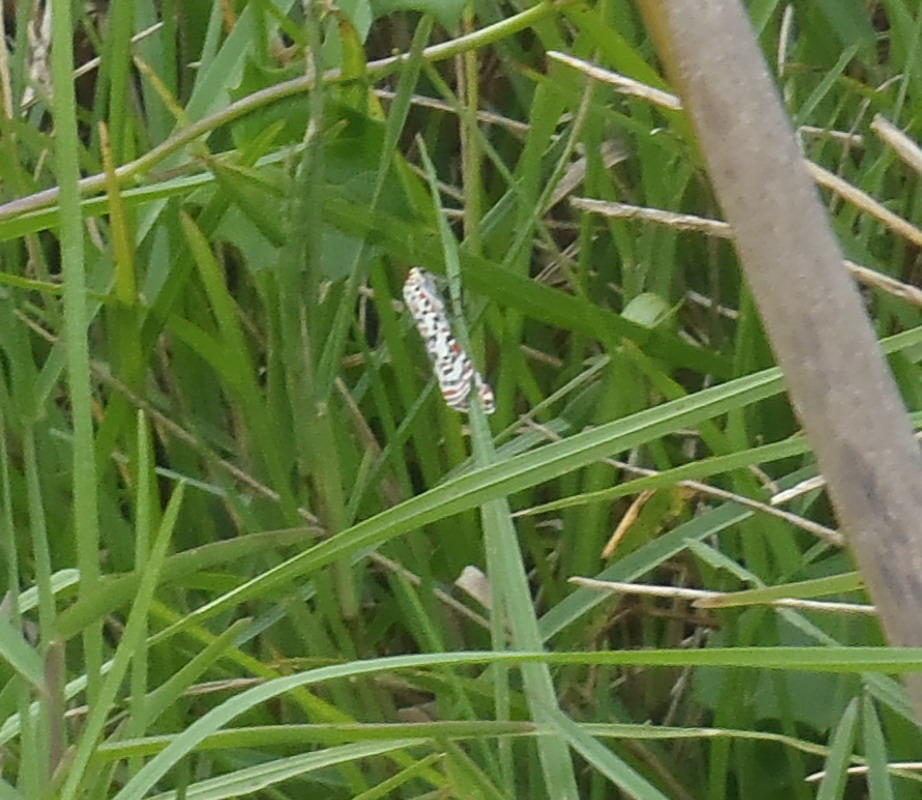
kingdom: Animalia
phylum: Arthropoda
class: Insecta
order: Lepidoptera
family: Erebidae
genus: Utetheisa
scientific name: Utetheisa pulchella
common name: Crimson speckled
